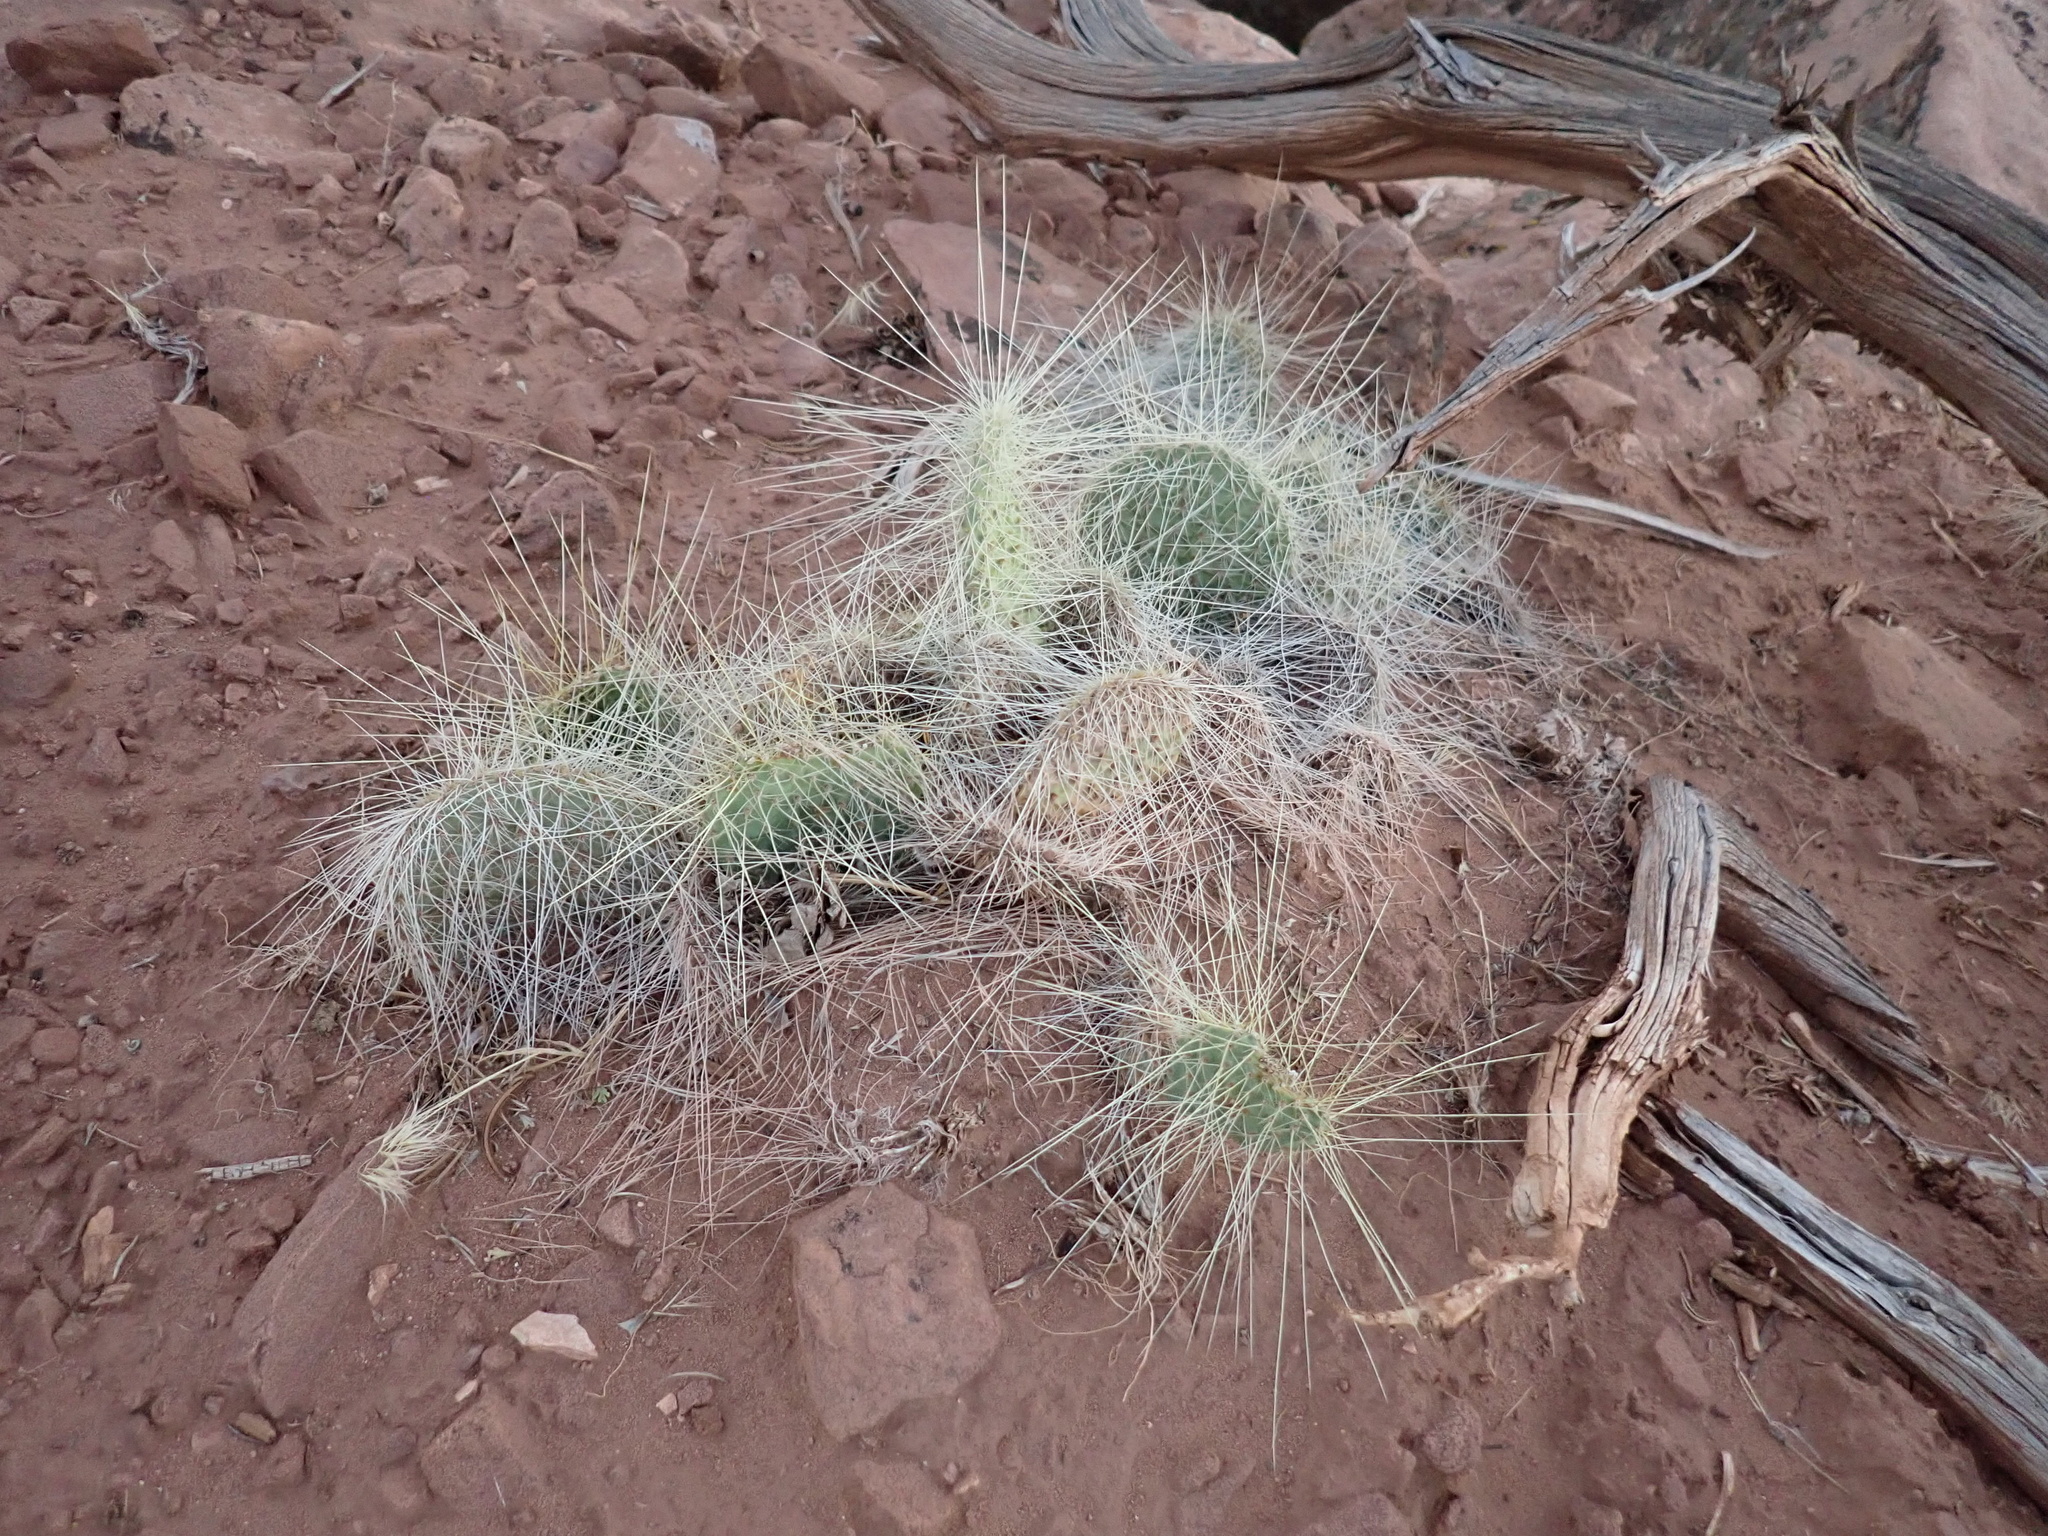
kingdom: Plantae
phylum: Tracheophyta
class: Magnoliopsida
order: Caryophyllales
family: Cactaceae
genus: Opuntia
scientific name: Opuntia polyacantha
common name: Plains prickly-pear
